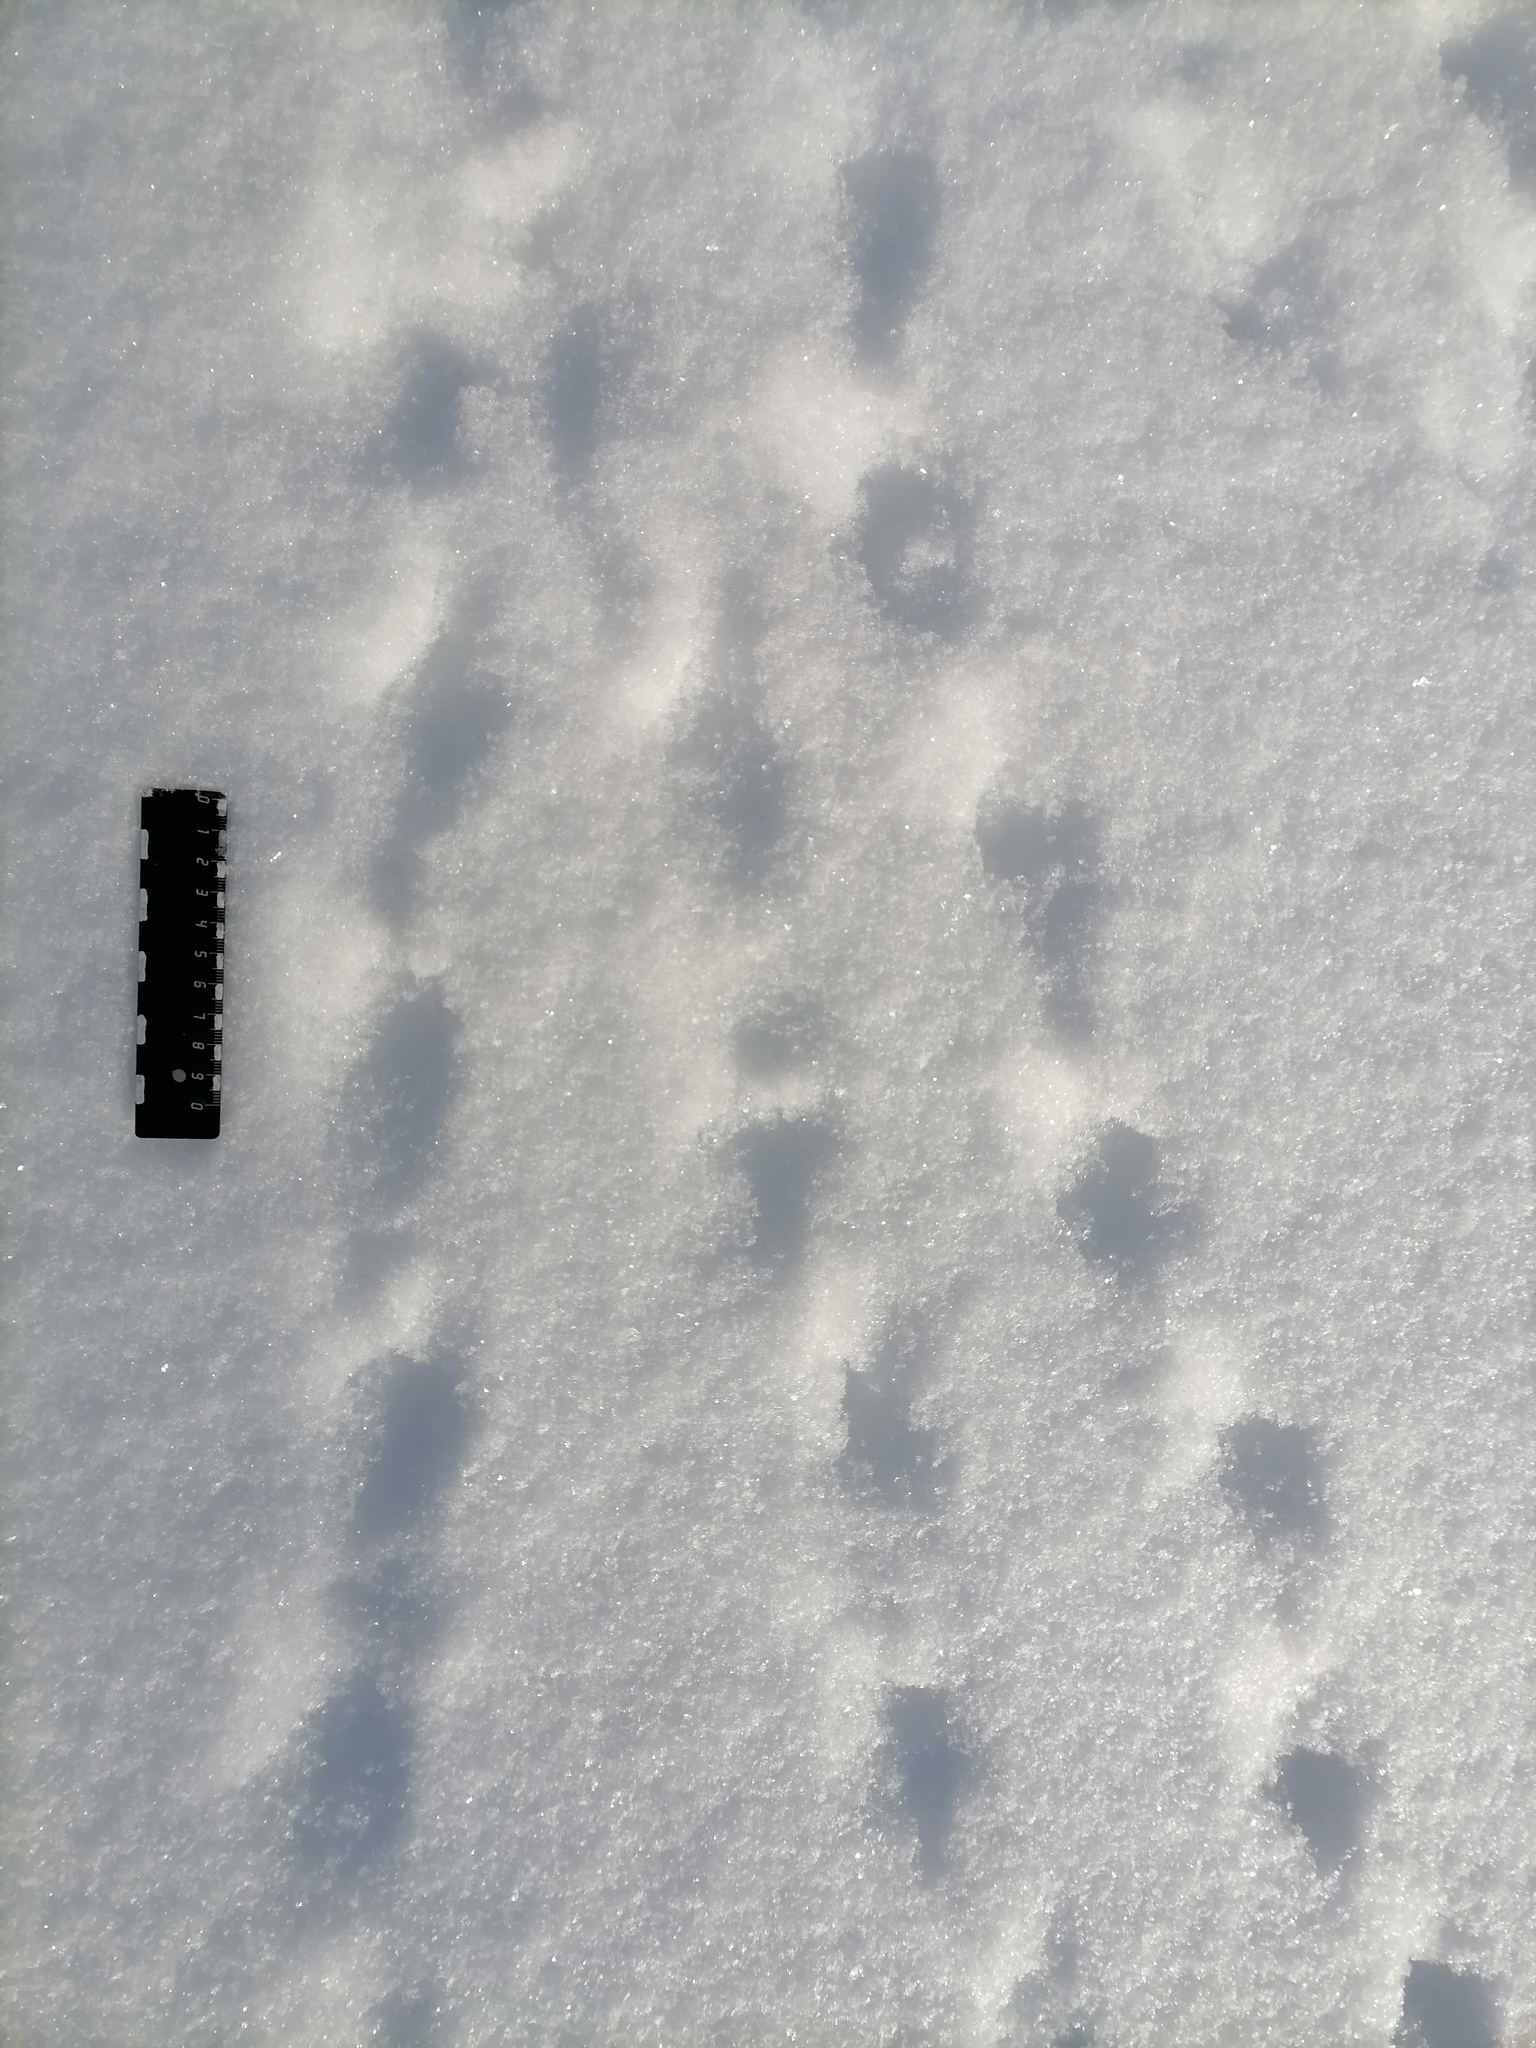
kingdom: Animalia
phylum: Chordata
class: Aves
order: Galliformes
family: Phasianidae
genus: Perdix
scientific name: Perdix perdix
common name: Grey partridge
